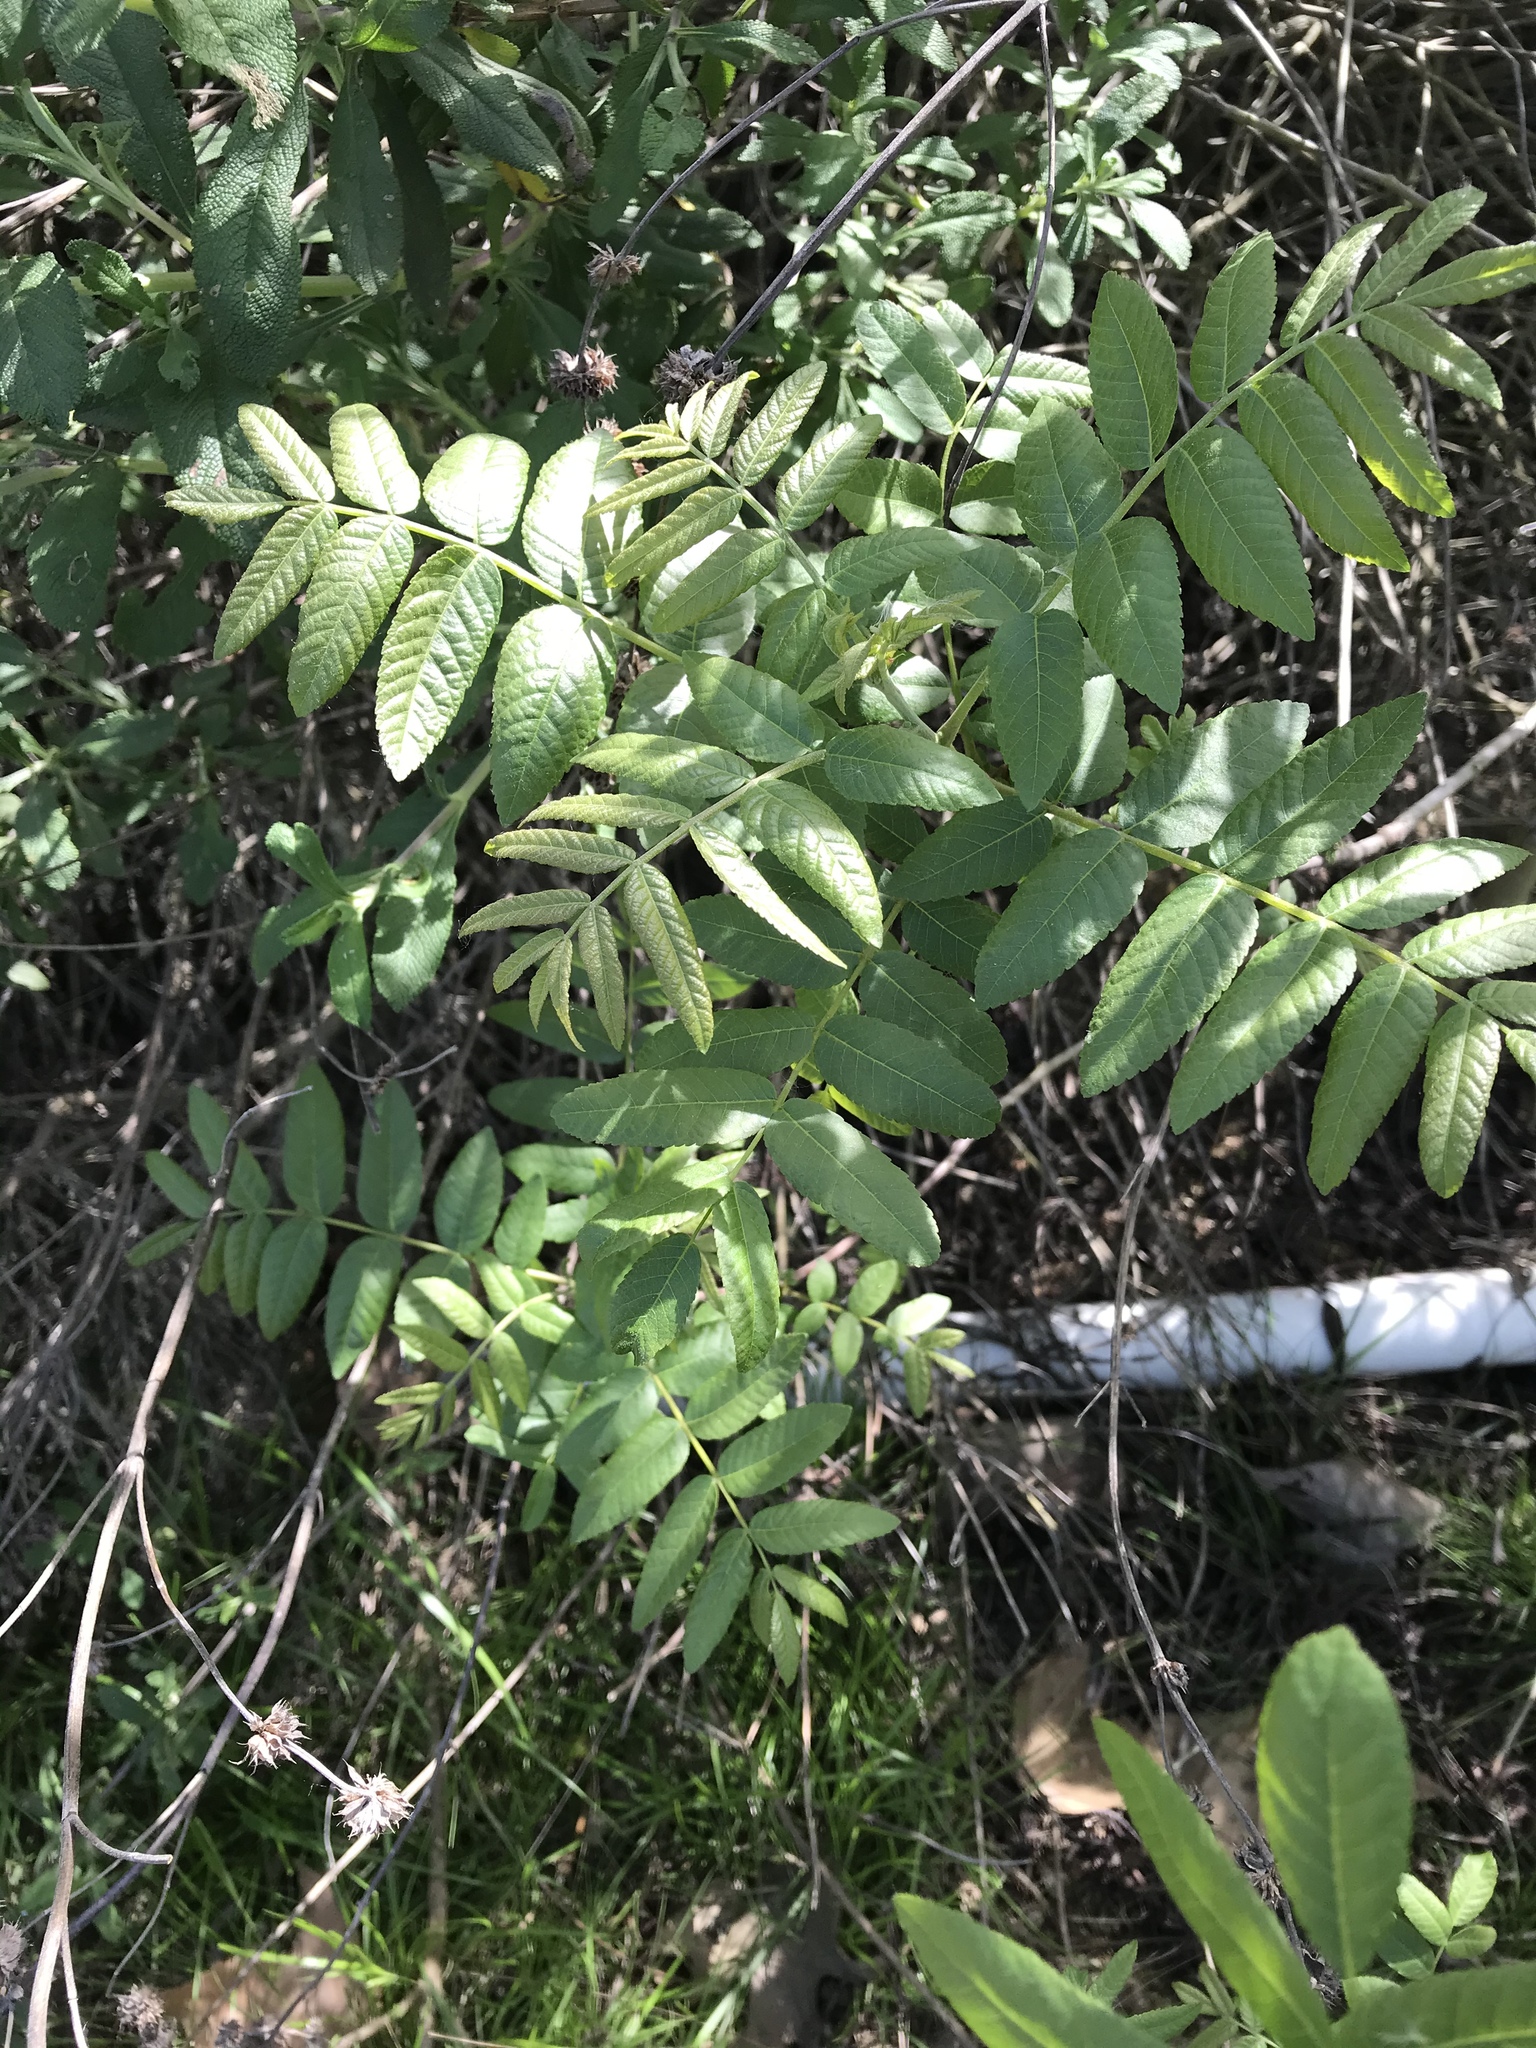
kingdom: Plantae
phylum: Tracheophyta
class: Magnoliopsida
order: Fagales
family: Juglandaceae
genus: Juglans
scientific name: Juglans californica
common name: Southern california black walnut
